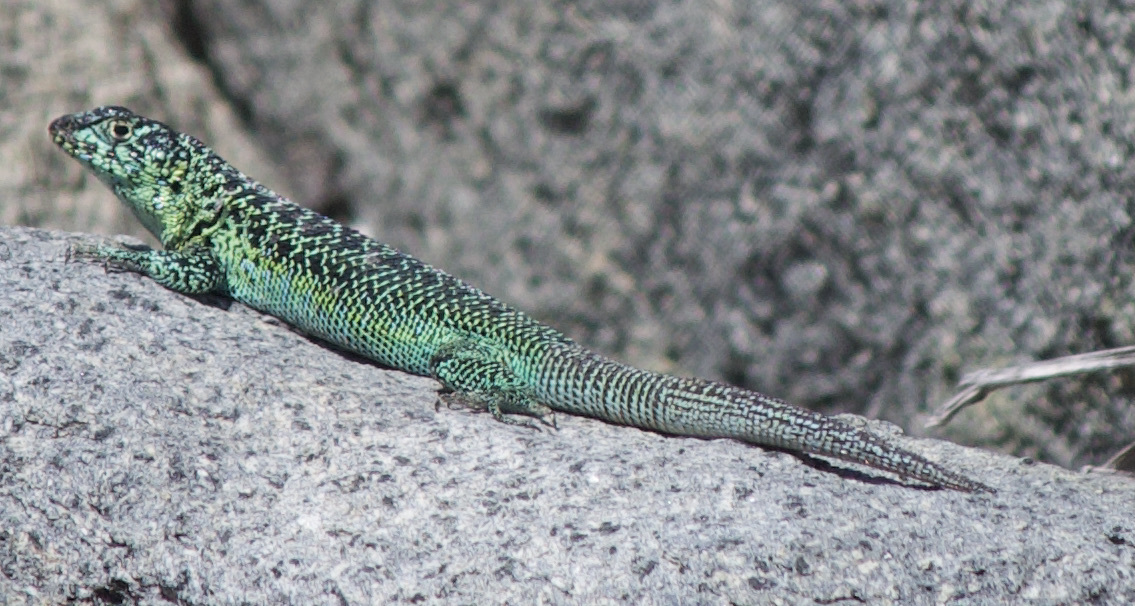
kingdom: Animalia
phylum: Chordata
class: Squamata
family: Liolaemidae
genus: Liolaemus
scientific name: Liolaemus zapallarensis
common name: Zapallaren tree iguana
